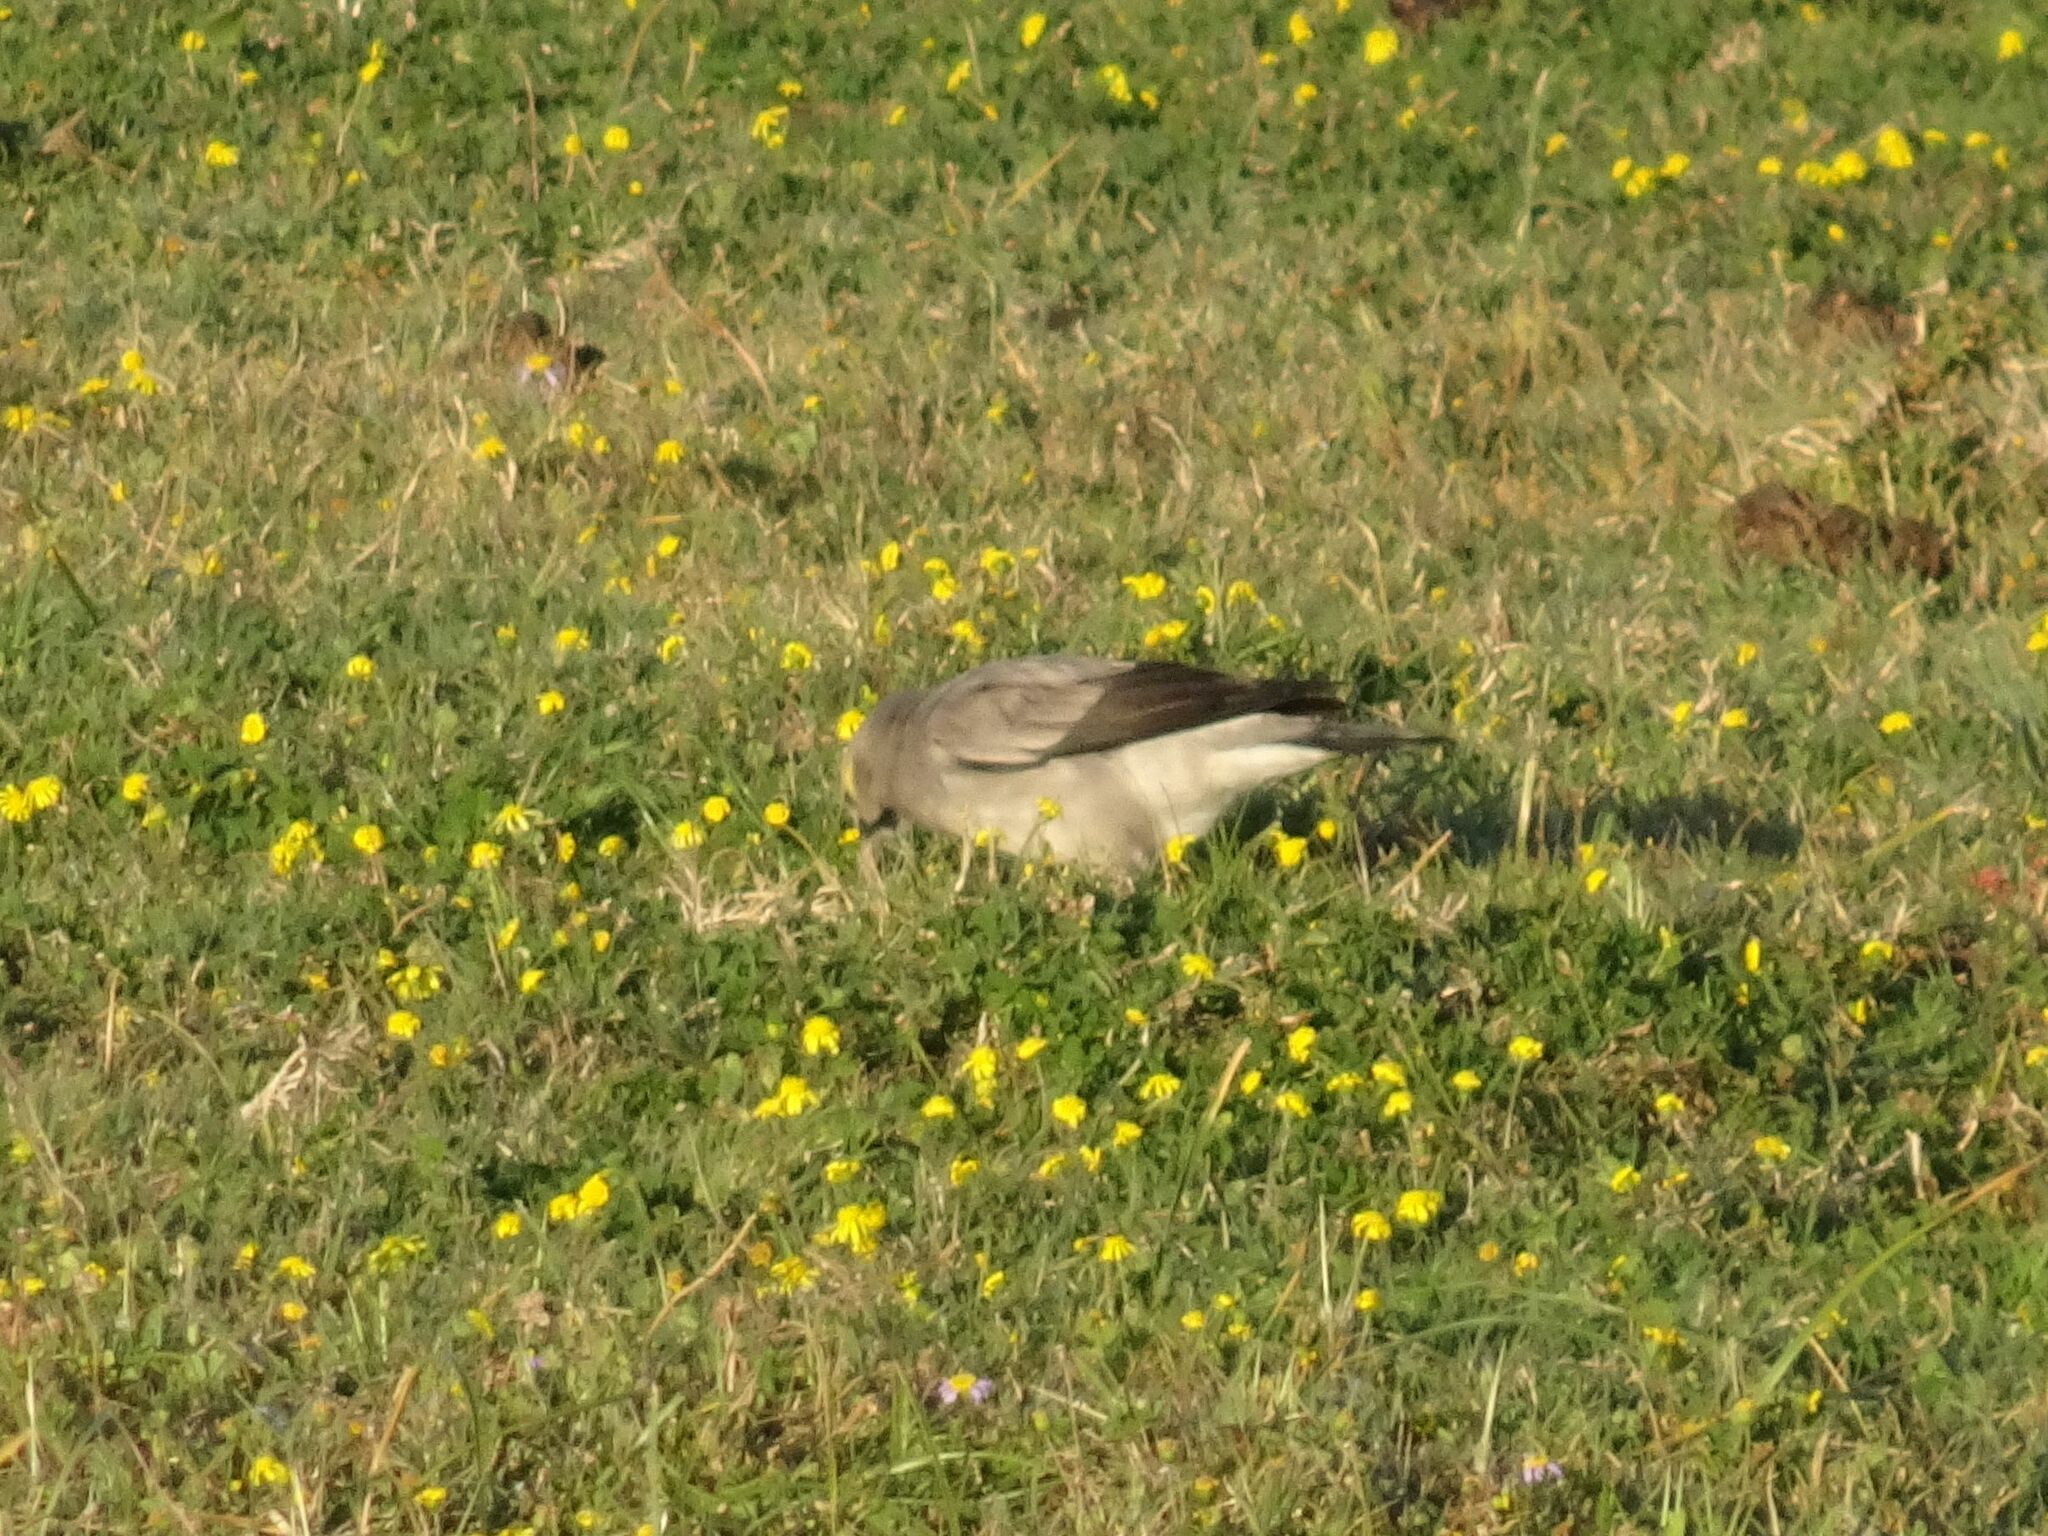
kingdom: Animalia
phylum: Chordata
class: Aves
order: Passeriformes
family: Sturnidae
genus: Creatophora
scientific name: Creatophora cinerea
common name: Wattled starling
